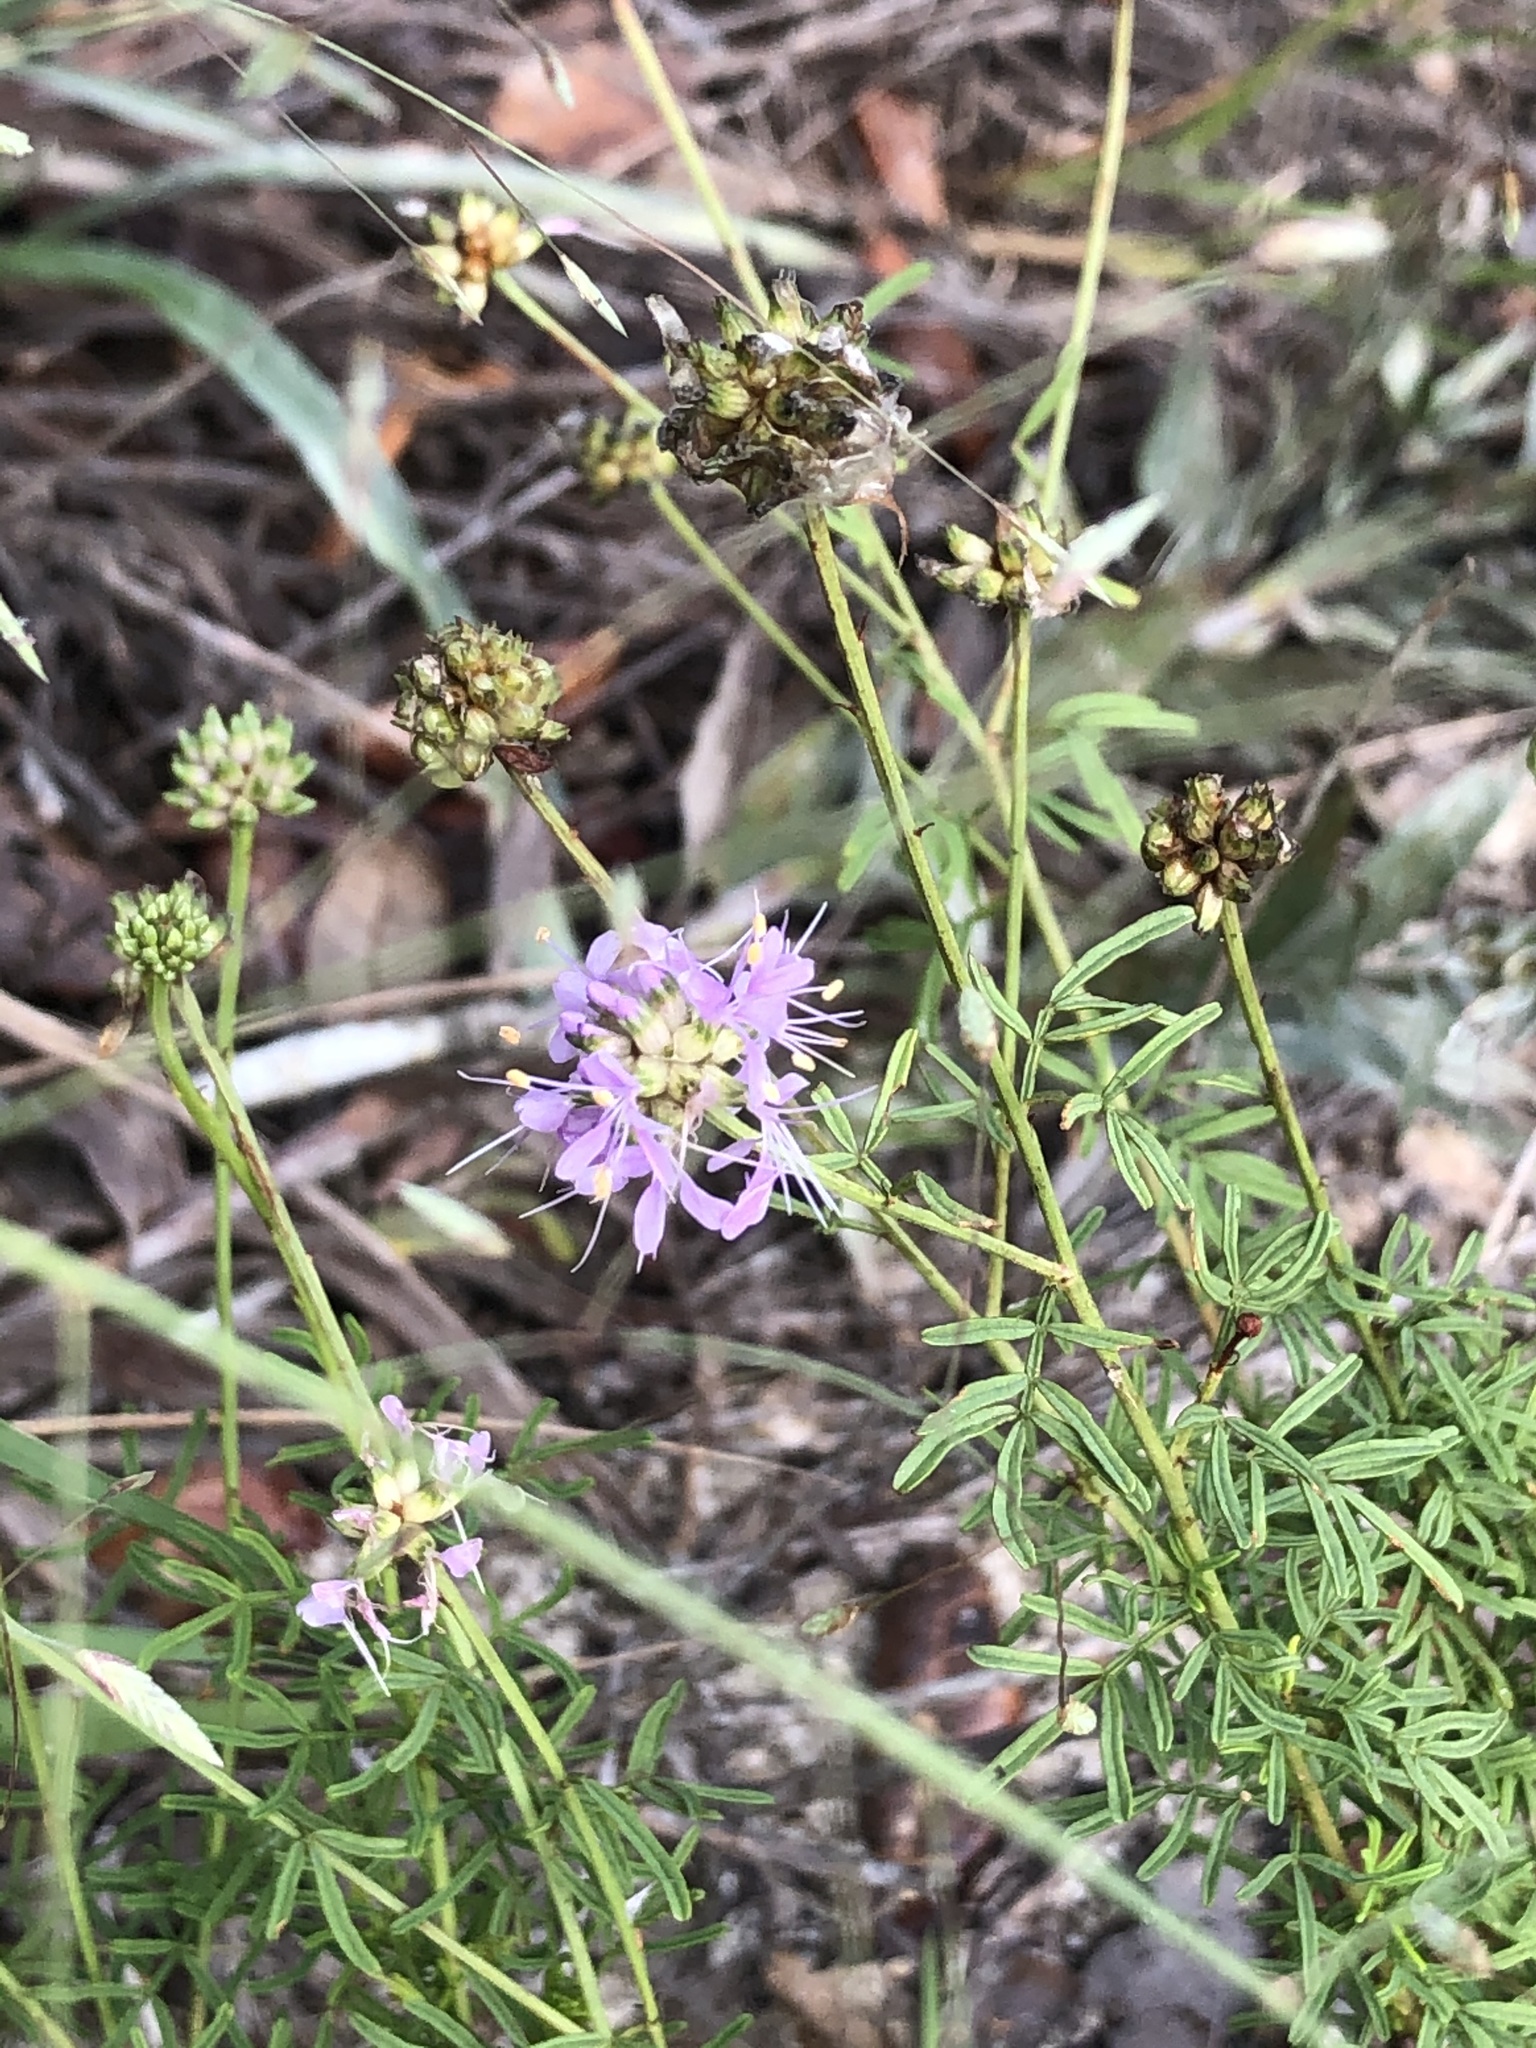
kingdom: Plantae
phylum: Tracheophyta
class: Magnoliopsida
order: Fabales
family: Fabaceae
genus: Dalea
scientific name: Dalea feayi
